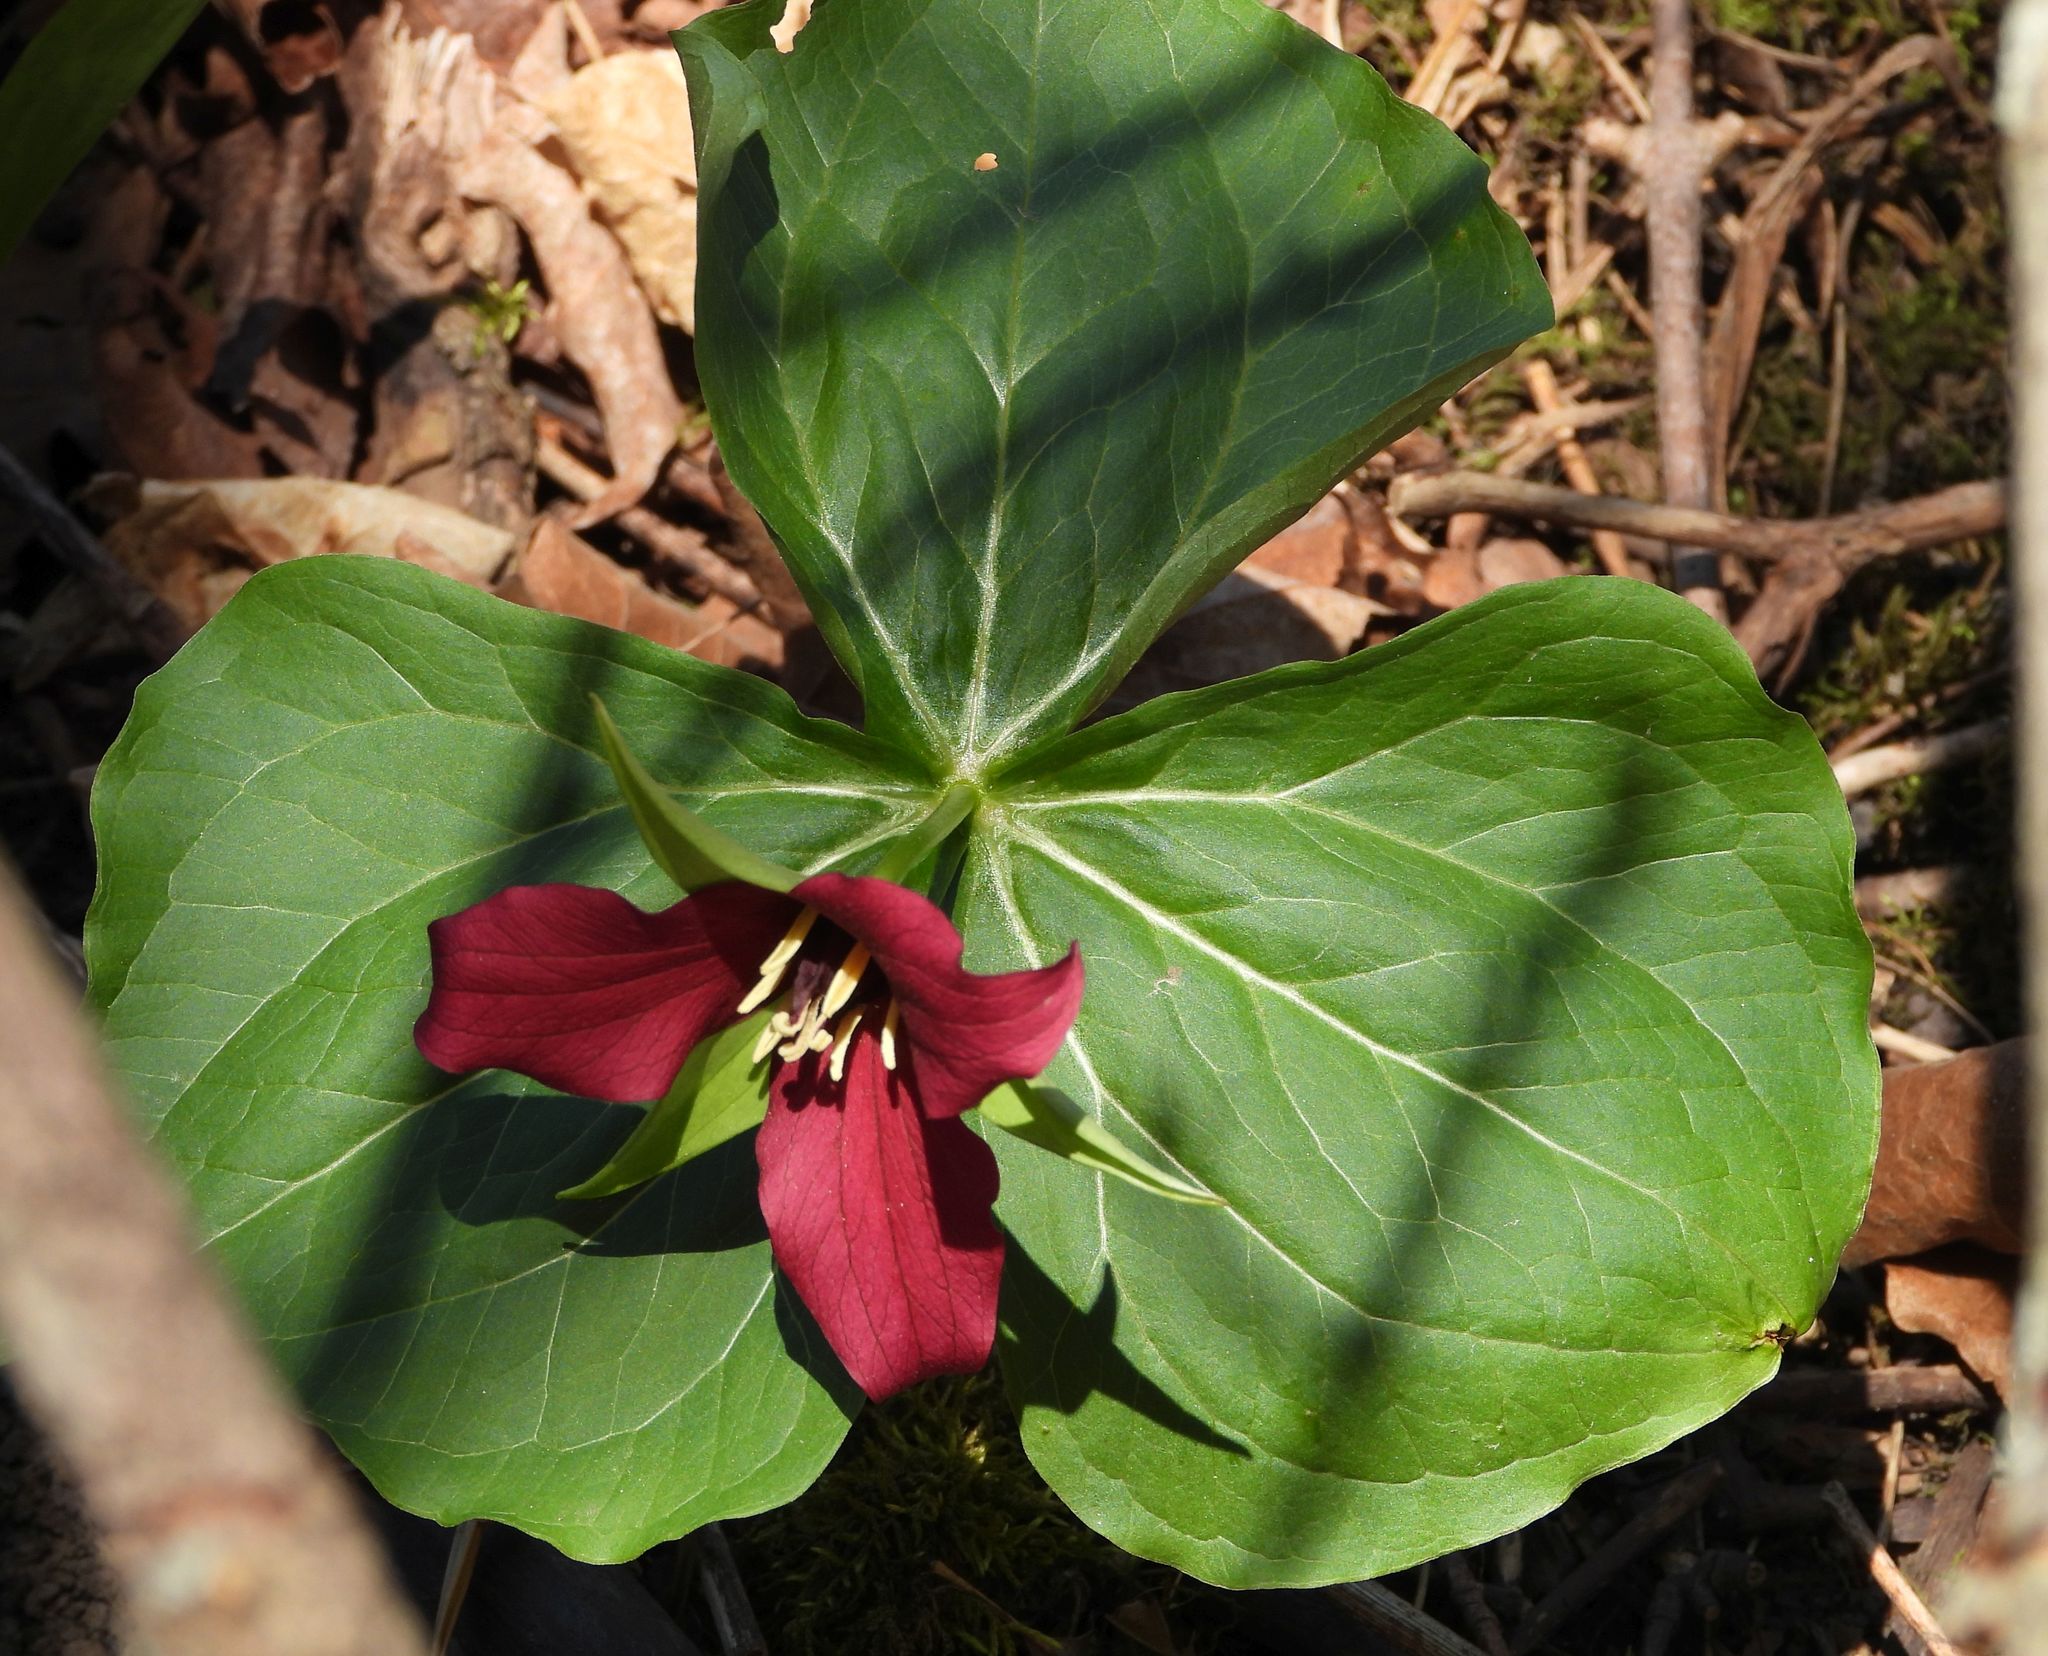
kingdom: Plantae
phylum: Tracheophyta
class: Liliopsida
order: Liliales
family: Melanthiaceae
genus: Trillium
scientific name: Trillium erectum
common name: Purple trillium
